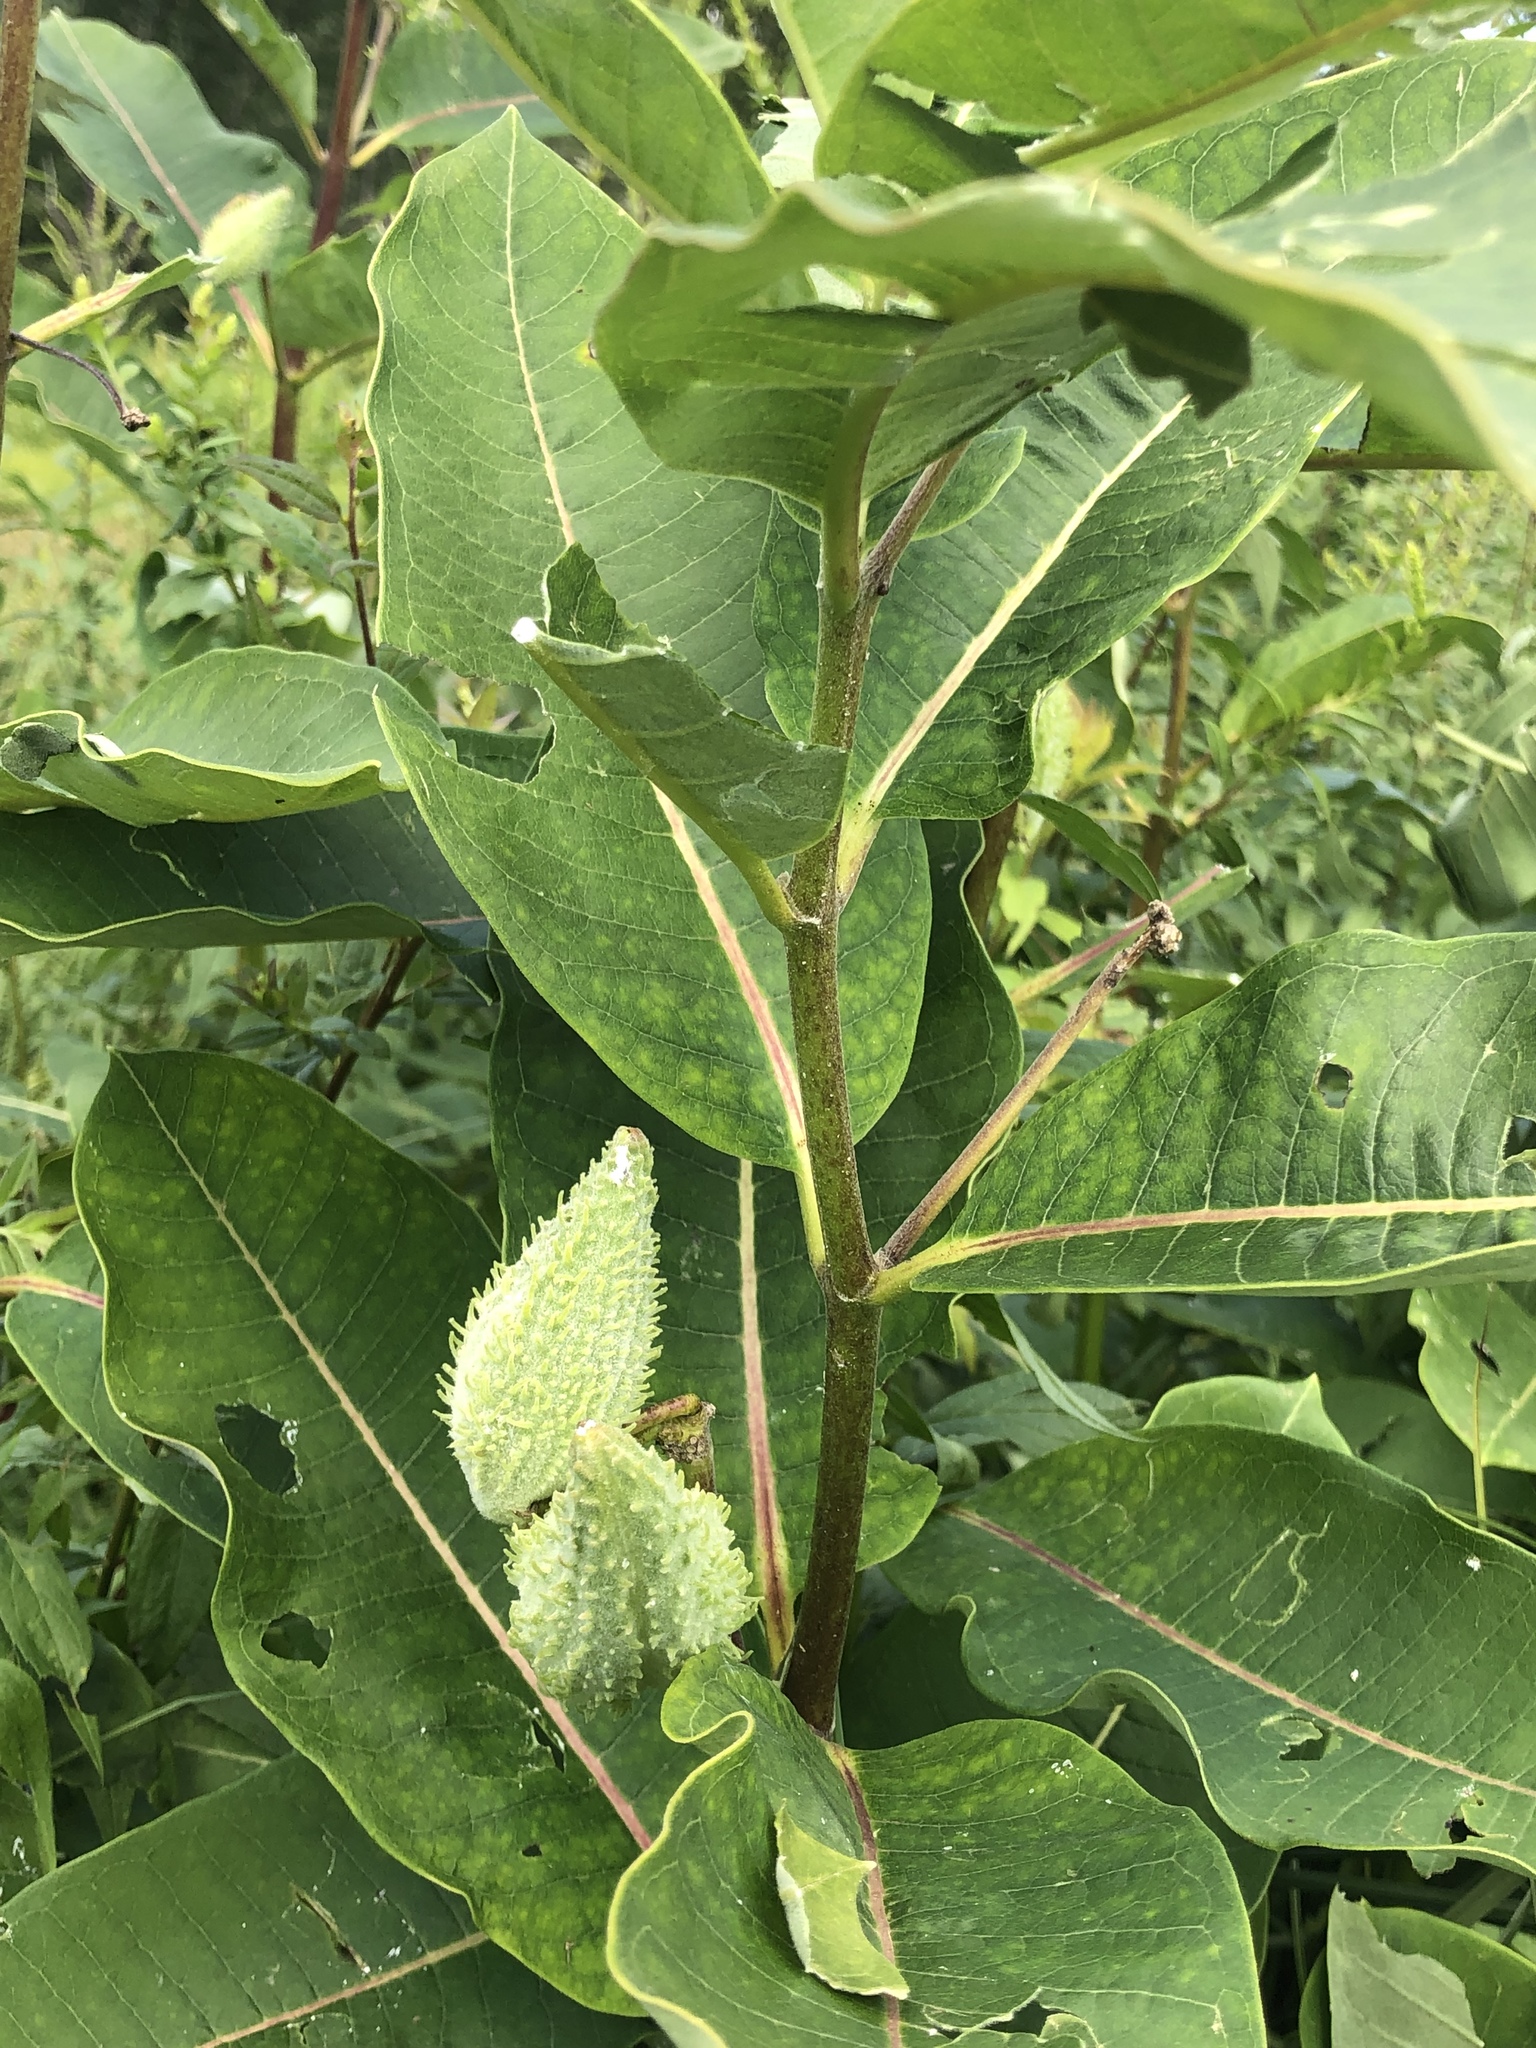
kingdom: Plantae
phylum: Tracheophyta
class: Magnoliopsida
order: Gentianales
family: Apocynaceae
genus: Asclepias
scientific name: Asclepias syriaca
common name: Common milkweed
